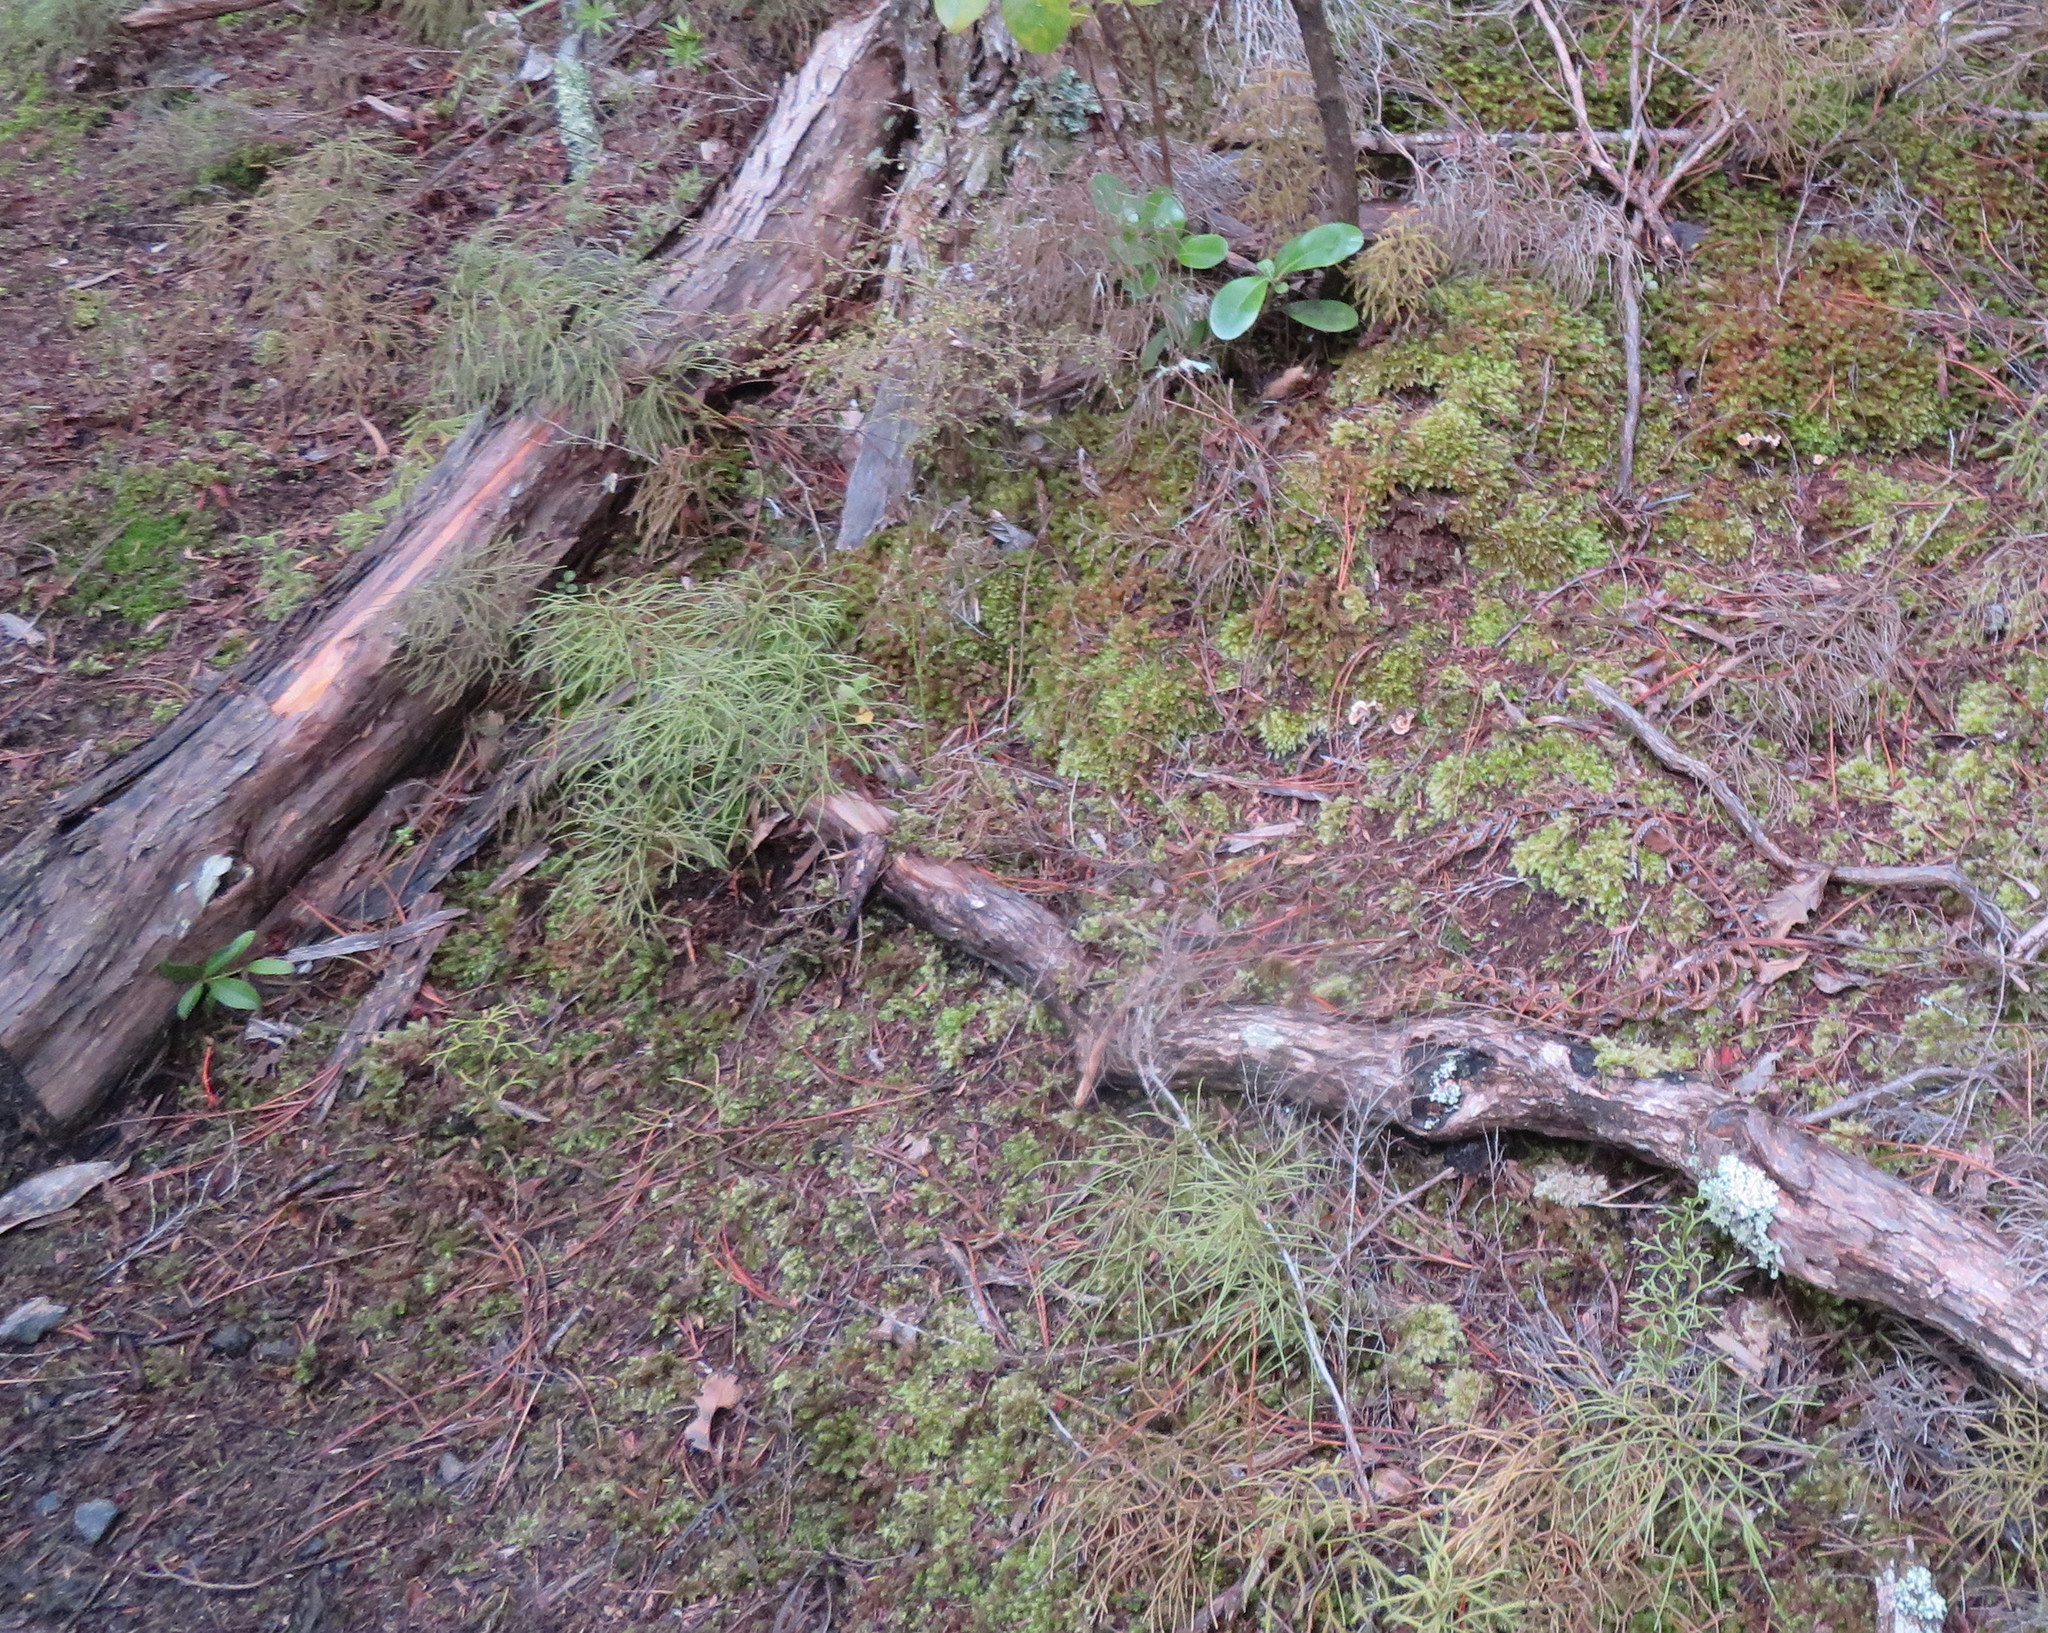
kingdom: Plantae
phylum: Tracheophyta
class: Lycopodiopsida
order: Lycopodiales
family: Lycopodiaceae
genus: Pseudolycopodium
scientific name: Pseudolycopodium densum
